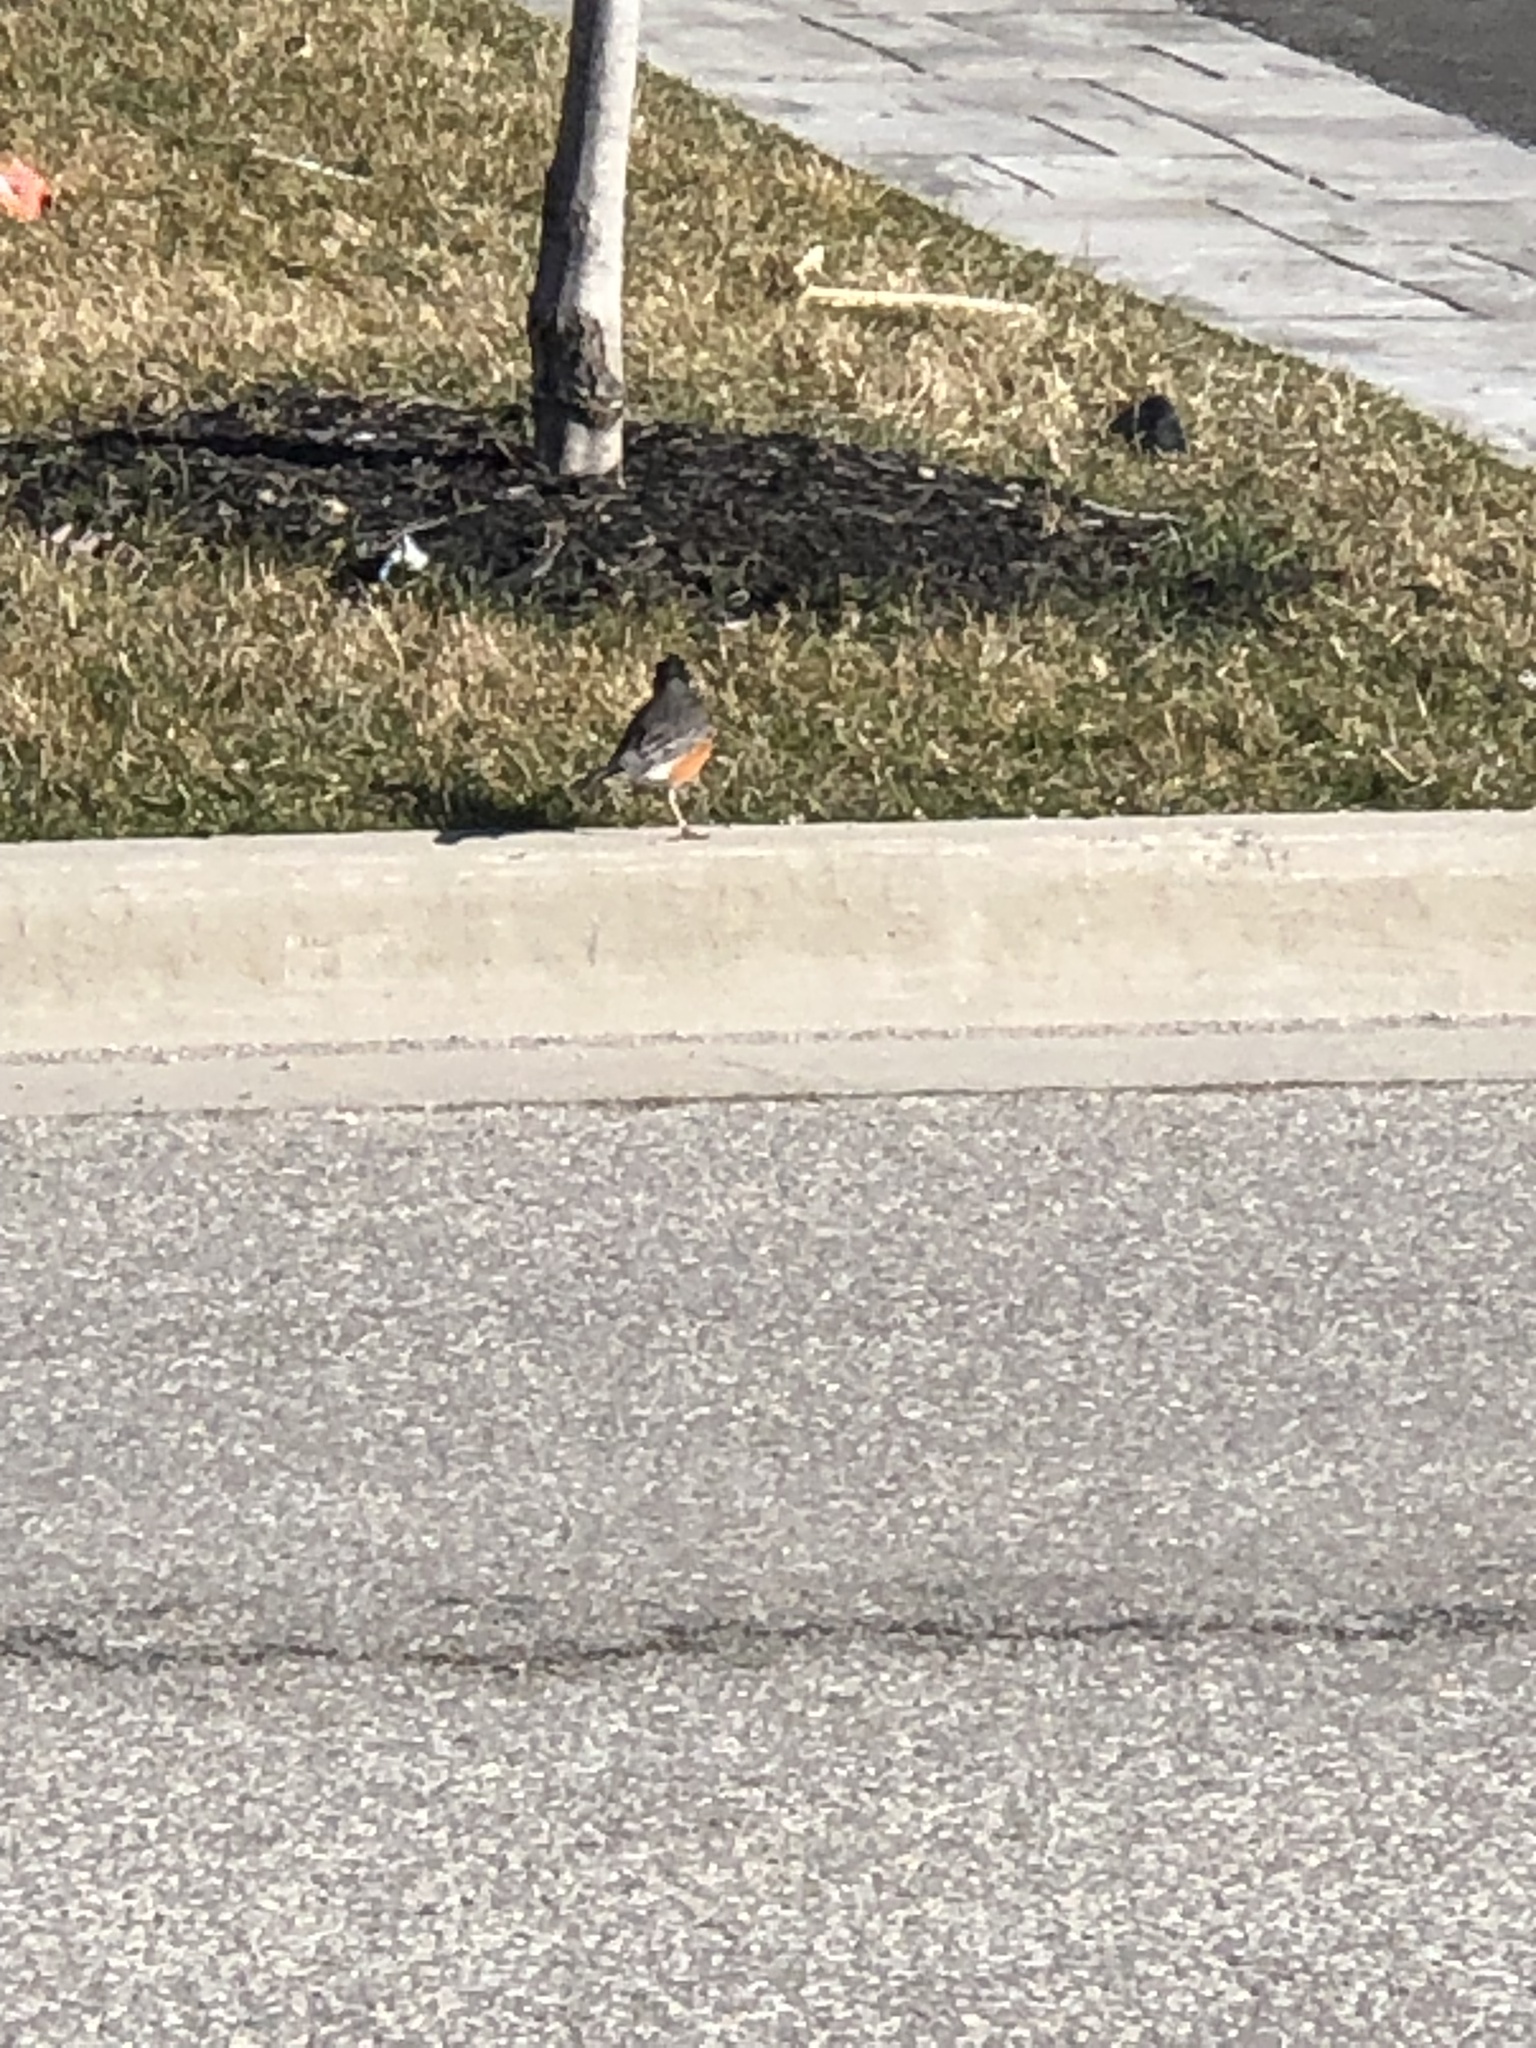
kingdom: Animalia
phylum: Chordata
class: Aves
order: Passeriformes
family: Turdidae
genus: Turdus
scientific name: Turdus migratorius
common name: American robin
